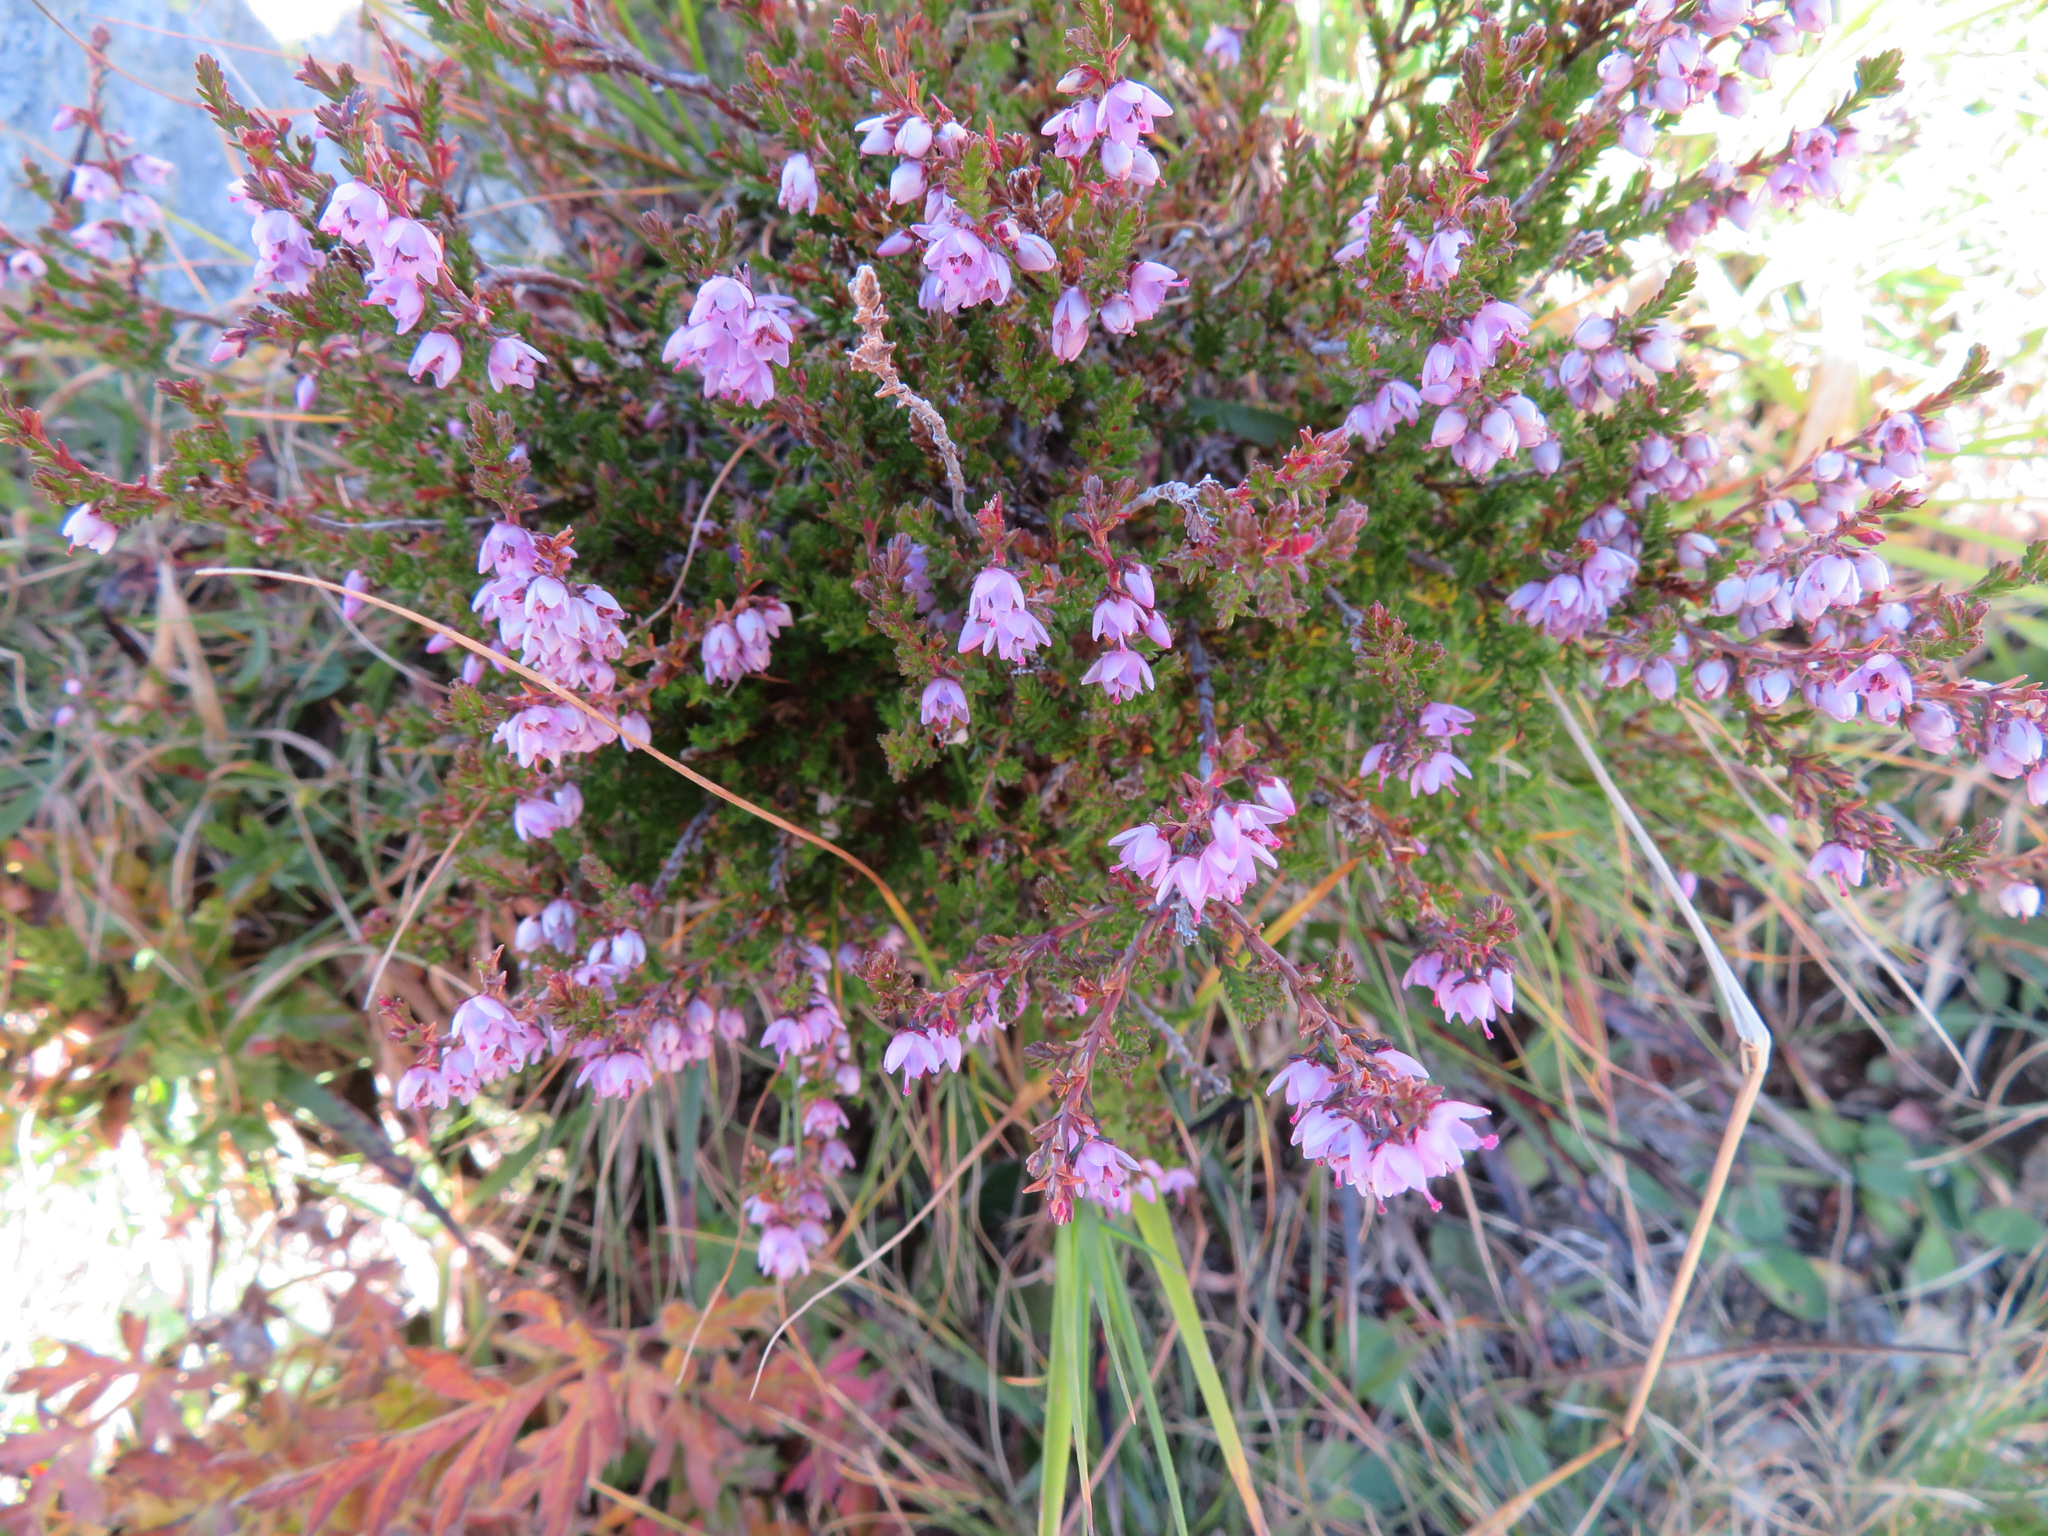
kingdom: Plantae
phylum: Tracheophyta
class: Magnoliopsida
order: Ericales
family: Ericaceae
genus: Calluna
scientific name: Calluna vulgaris
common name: Heather
